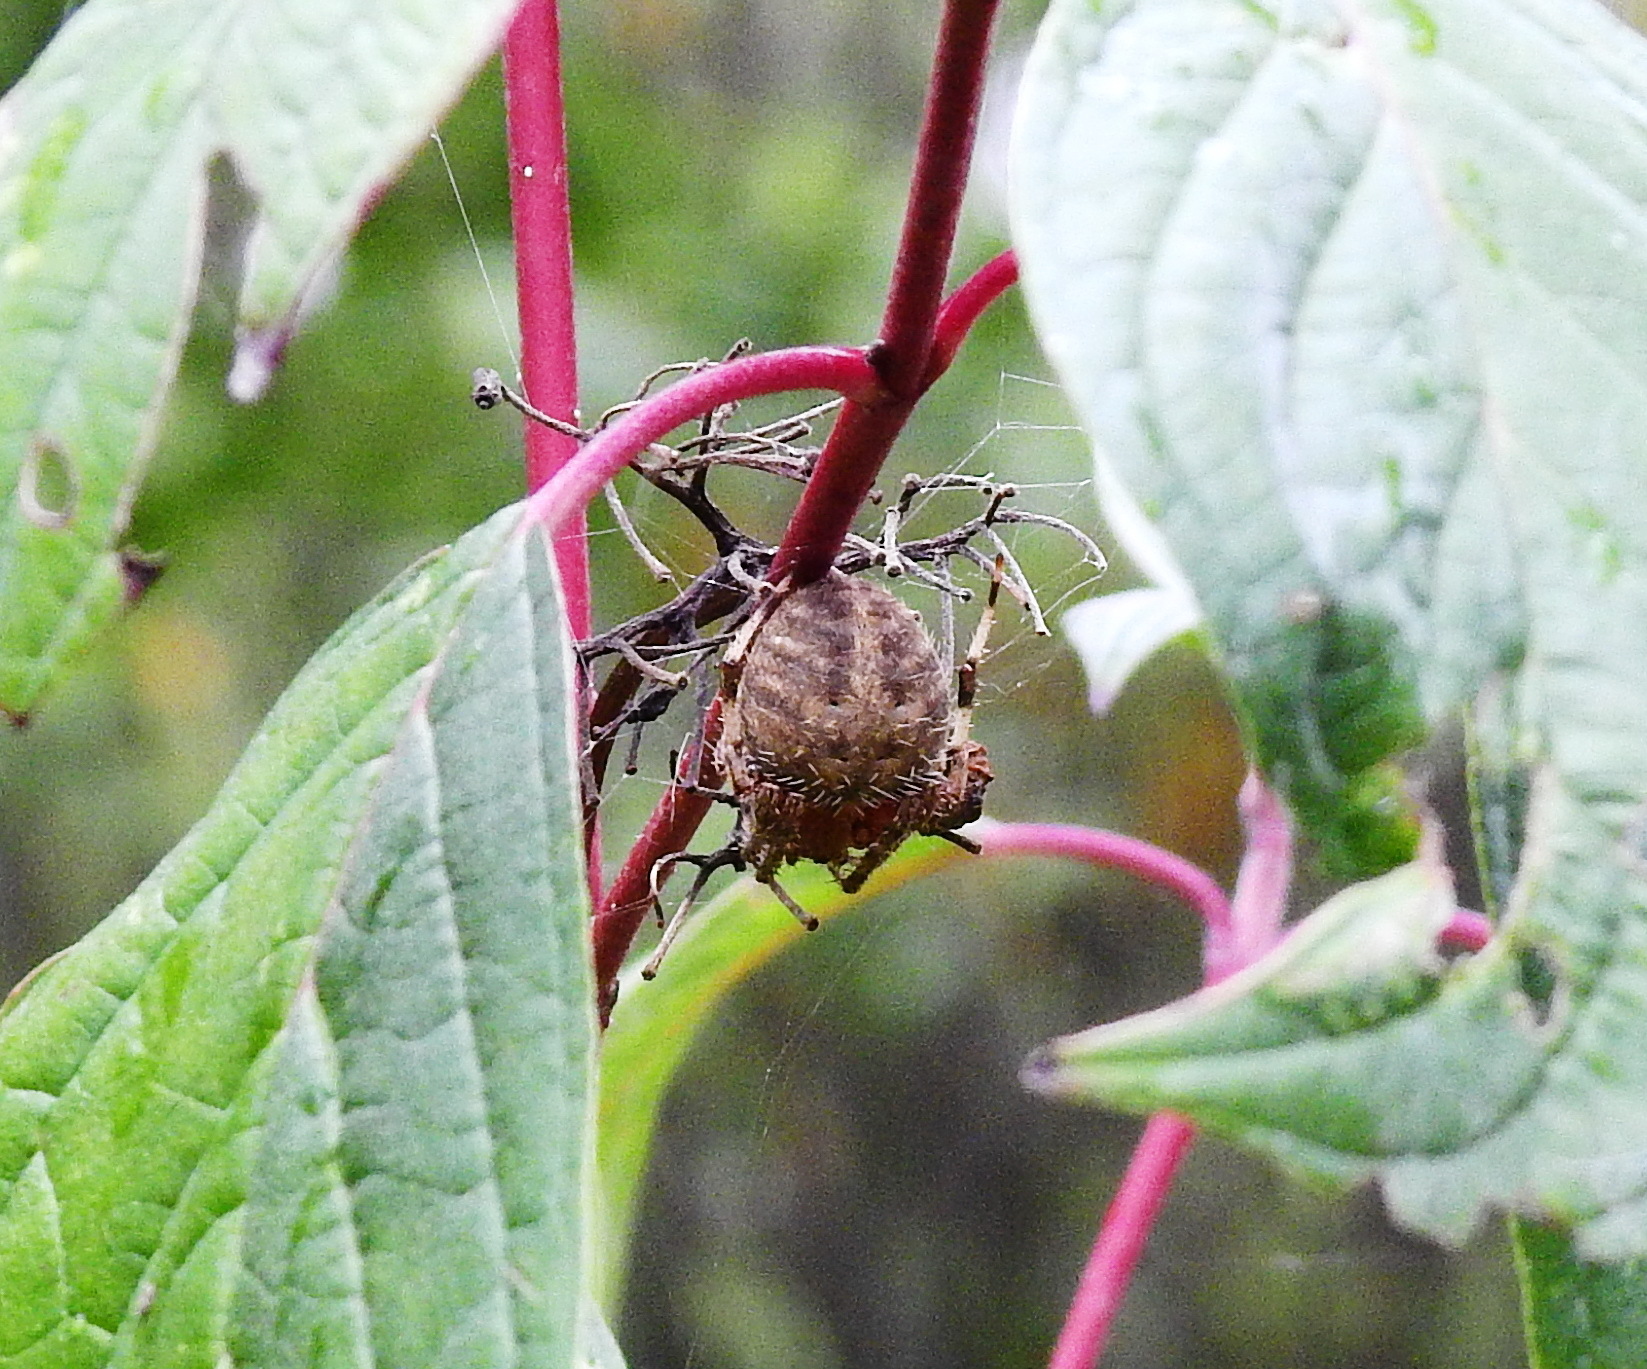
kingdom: Animalia
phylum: Arthropoda
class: Arachnida
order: Araneae
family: Araneidae
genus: Neoscona
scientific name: Neoscona crucifera
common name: Spotted orbweaver
